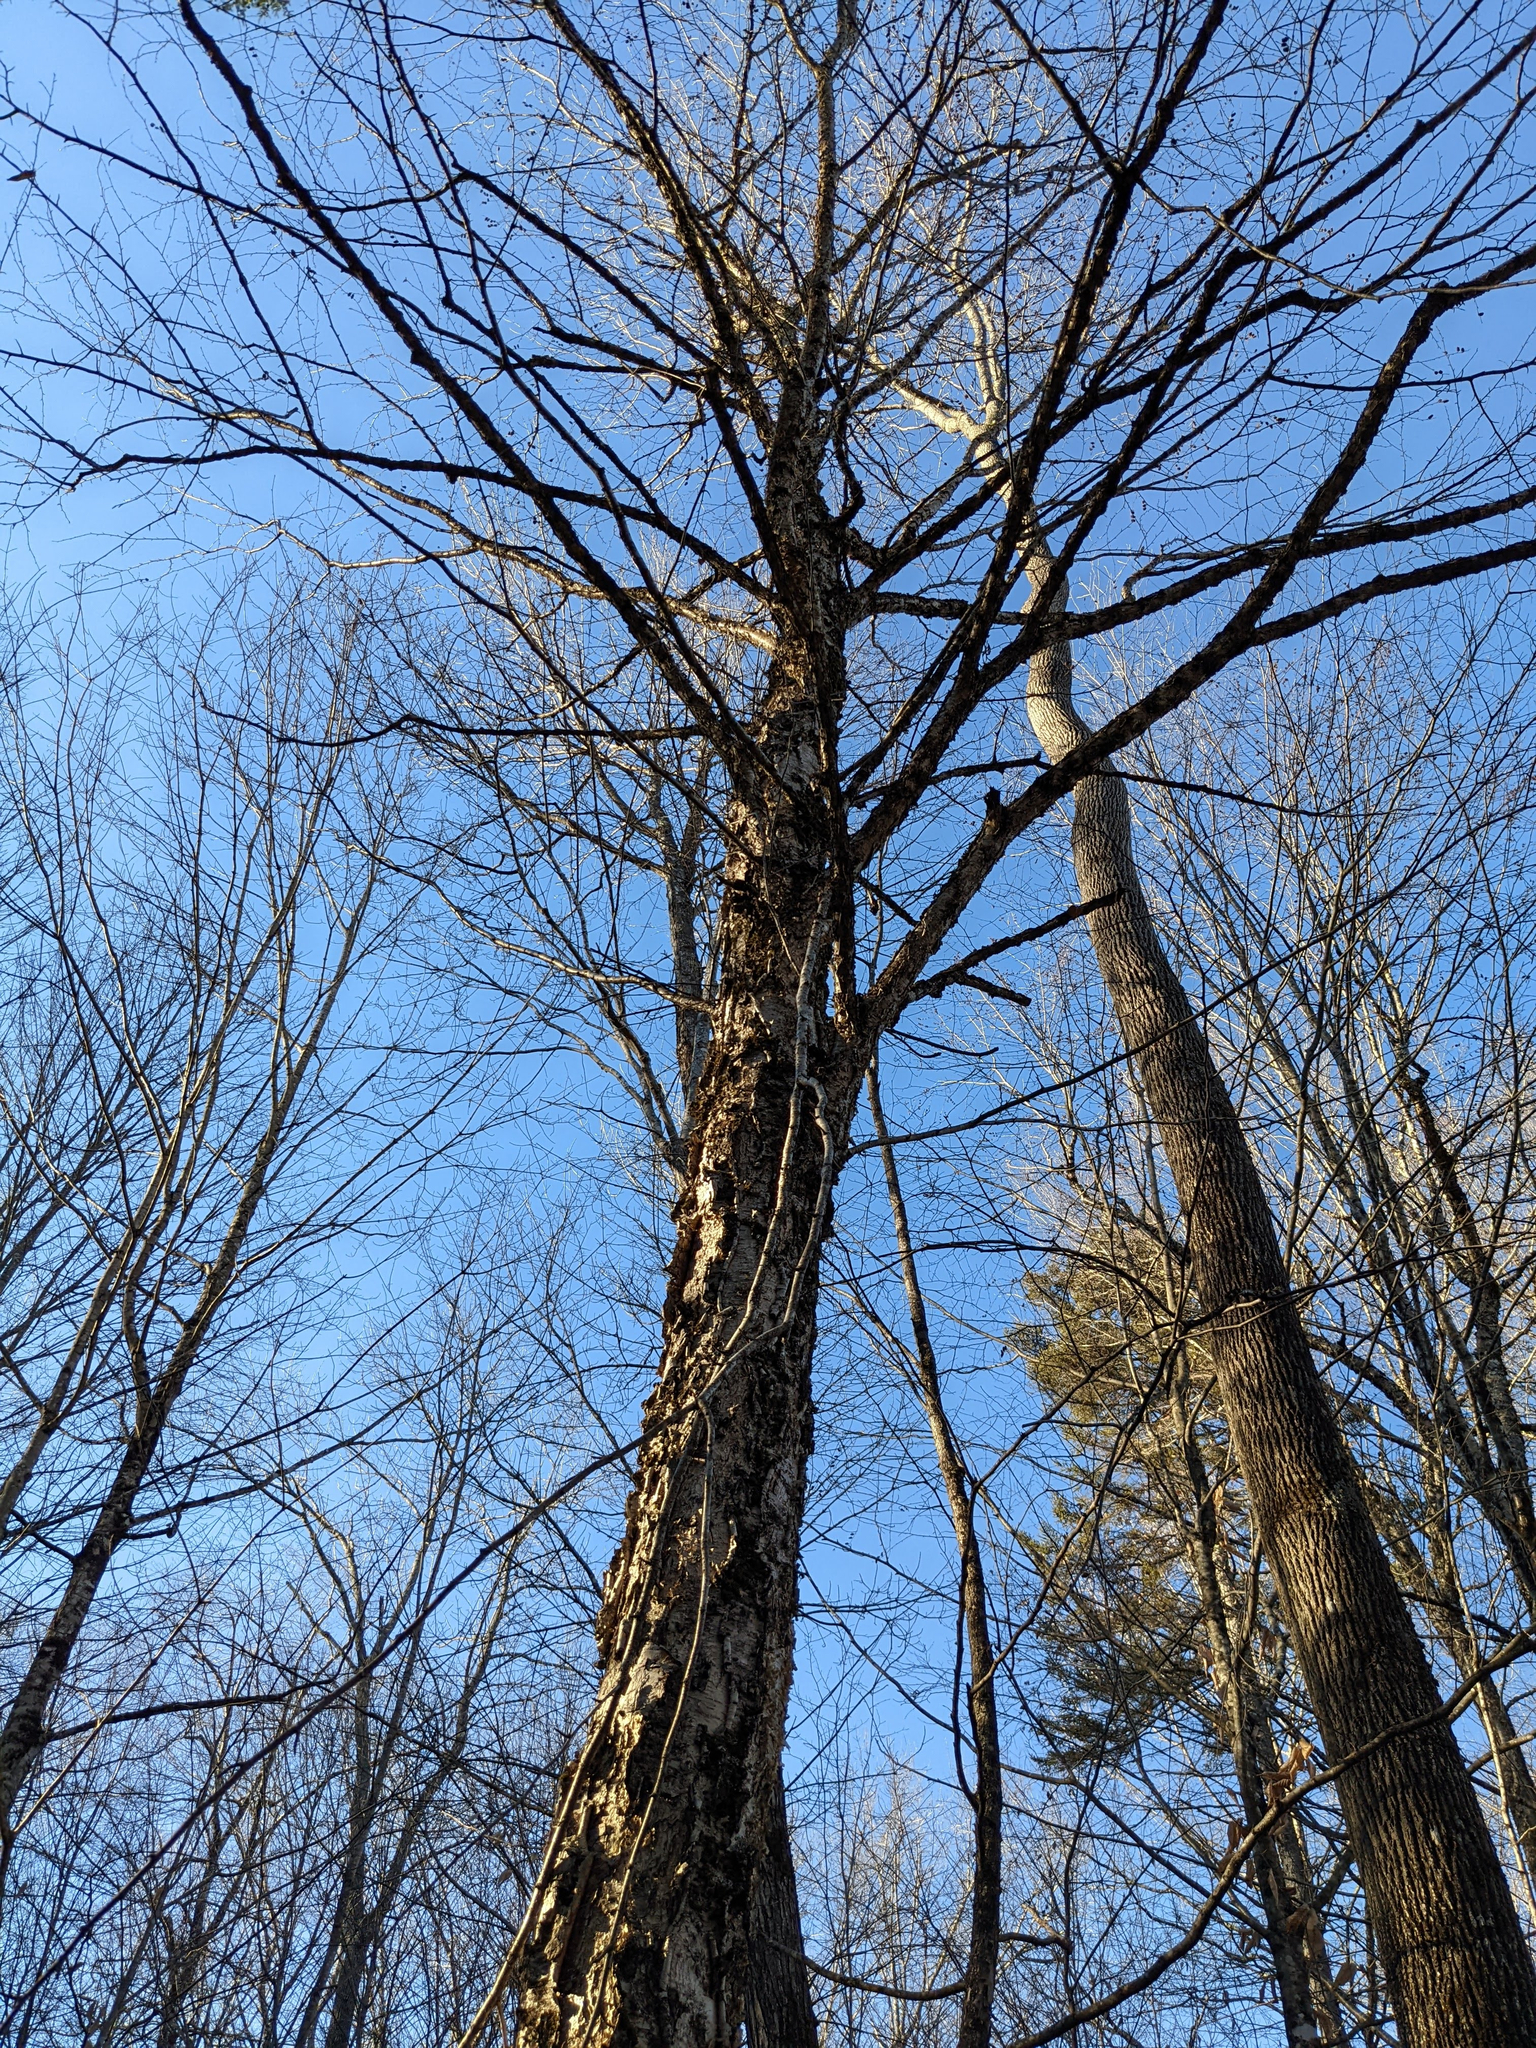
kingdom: Plantae
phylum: Tracheophyta
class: Magnoliopsida
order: Fagales
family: Betulaceae
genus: Betula
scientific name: Betula alleghaniensis
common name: Yellow birch
